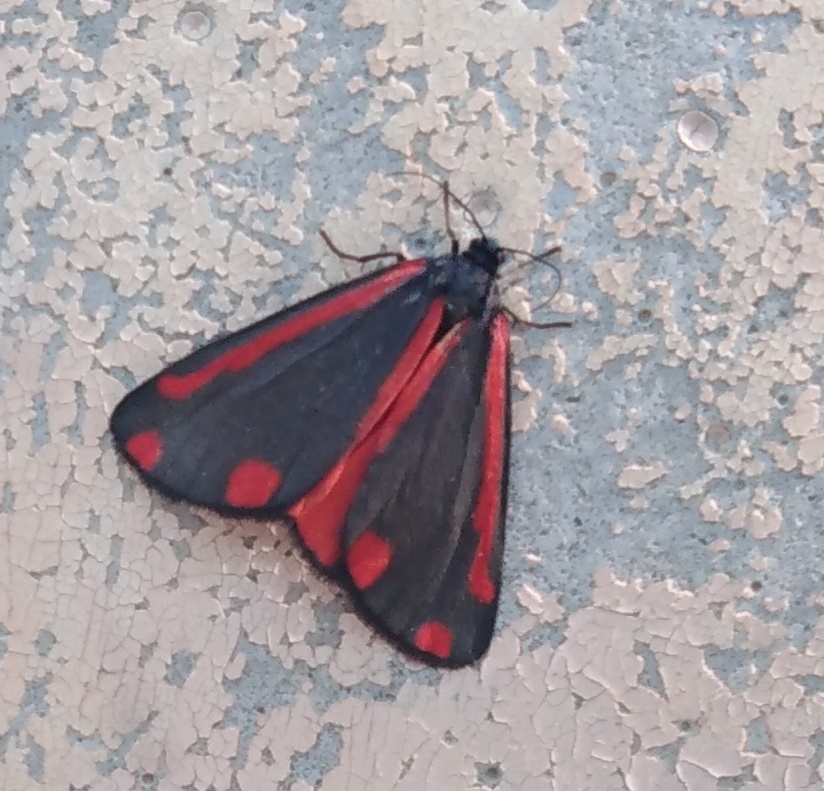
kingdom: Animalia
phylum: Arthropoda
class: Insecta
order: Lepidoptera
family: Erebidae
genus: Tyria
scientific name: Tyria jacobaeae
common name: Cinnabar
